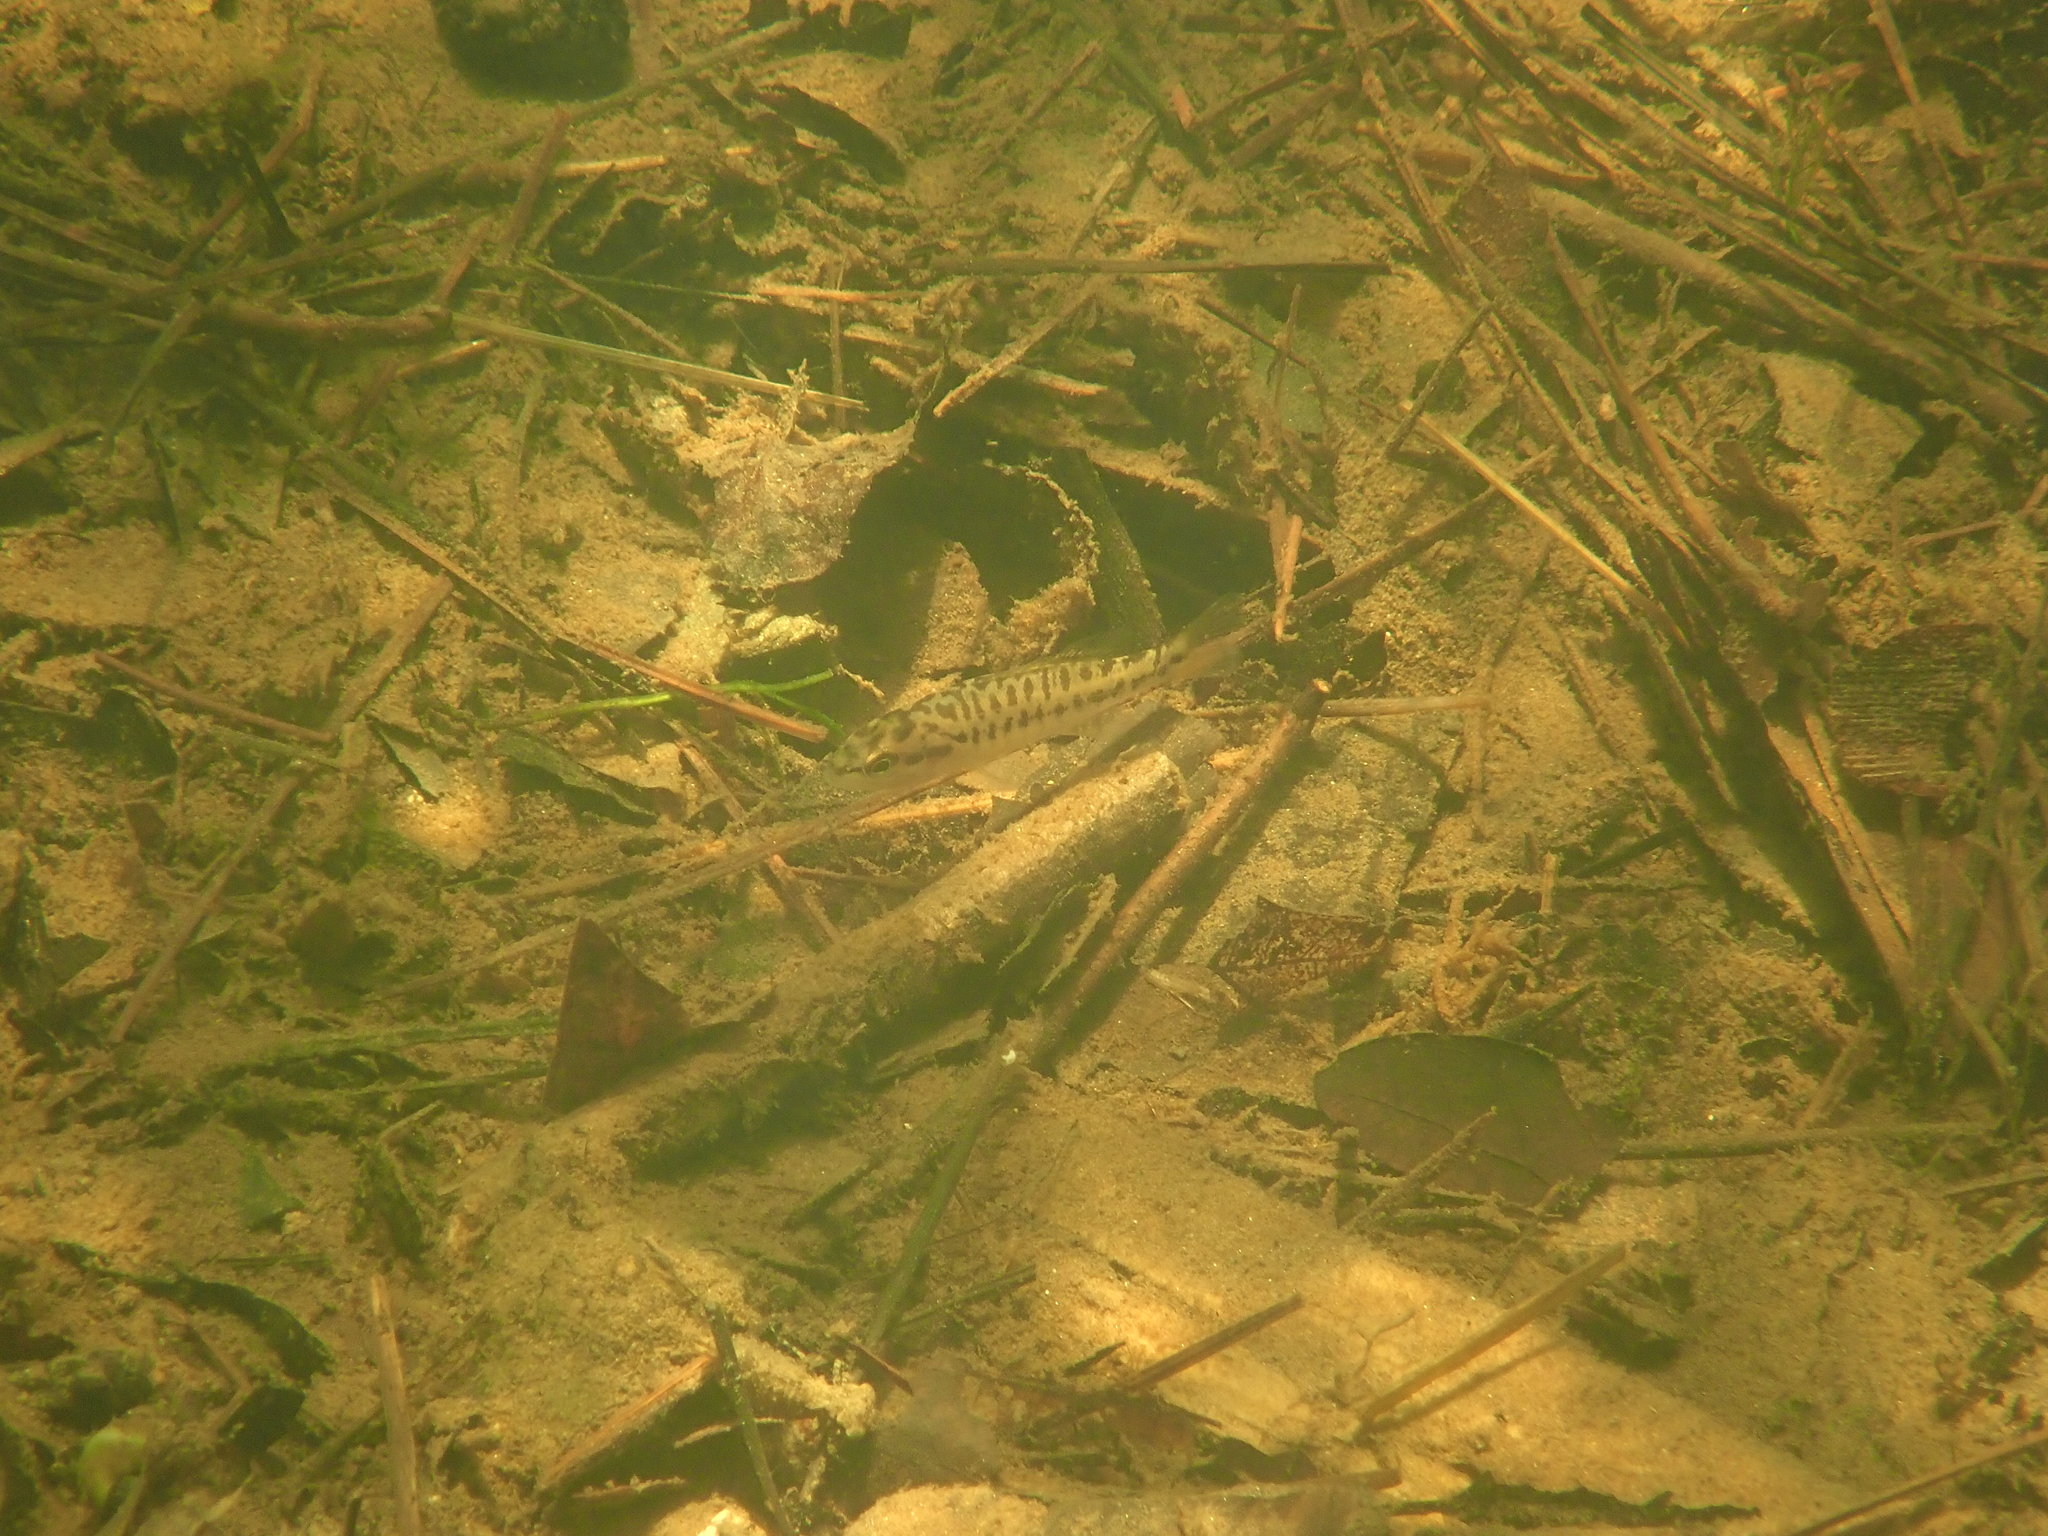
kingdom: Animalia
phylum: Chordata
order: Perciformes
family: Centrarchidae
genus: Micropterus
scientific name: Micropterus coosae
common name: Redeye bass
